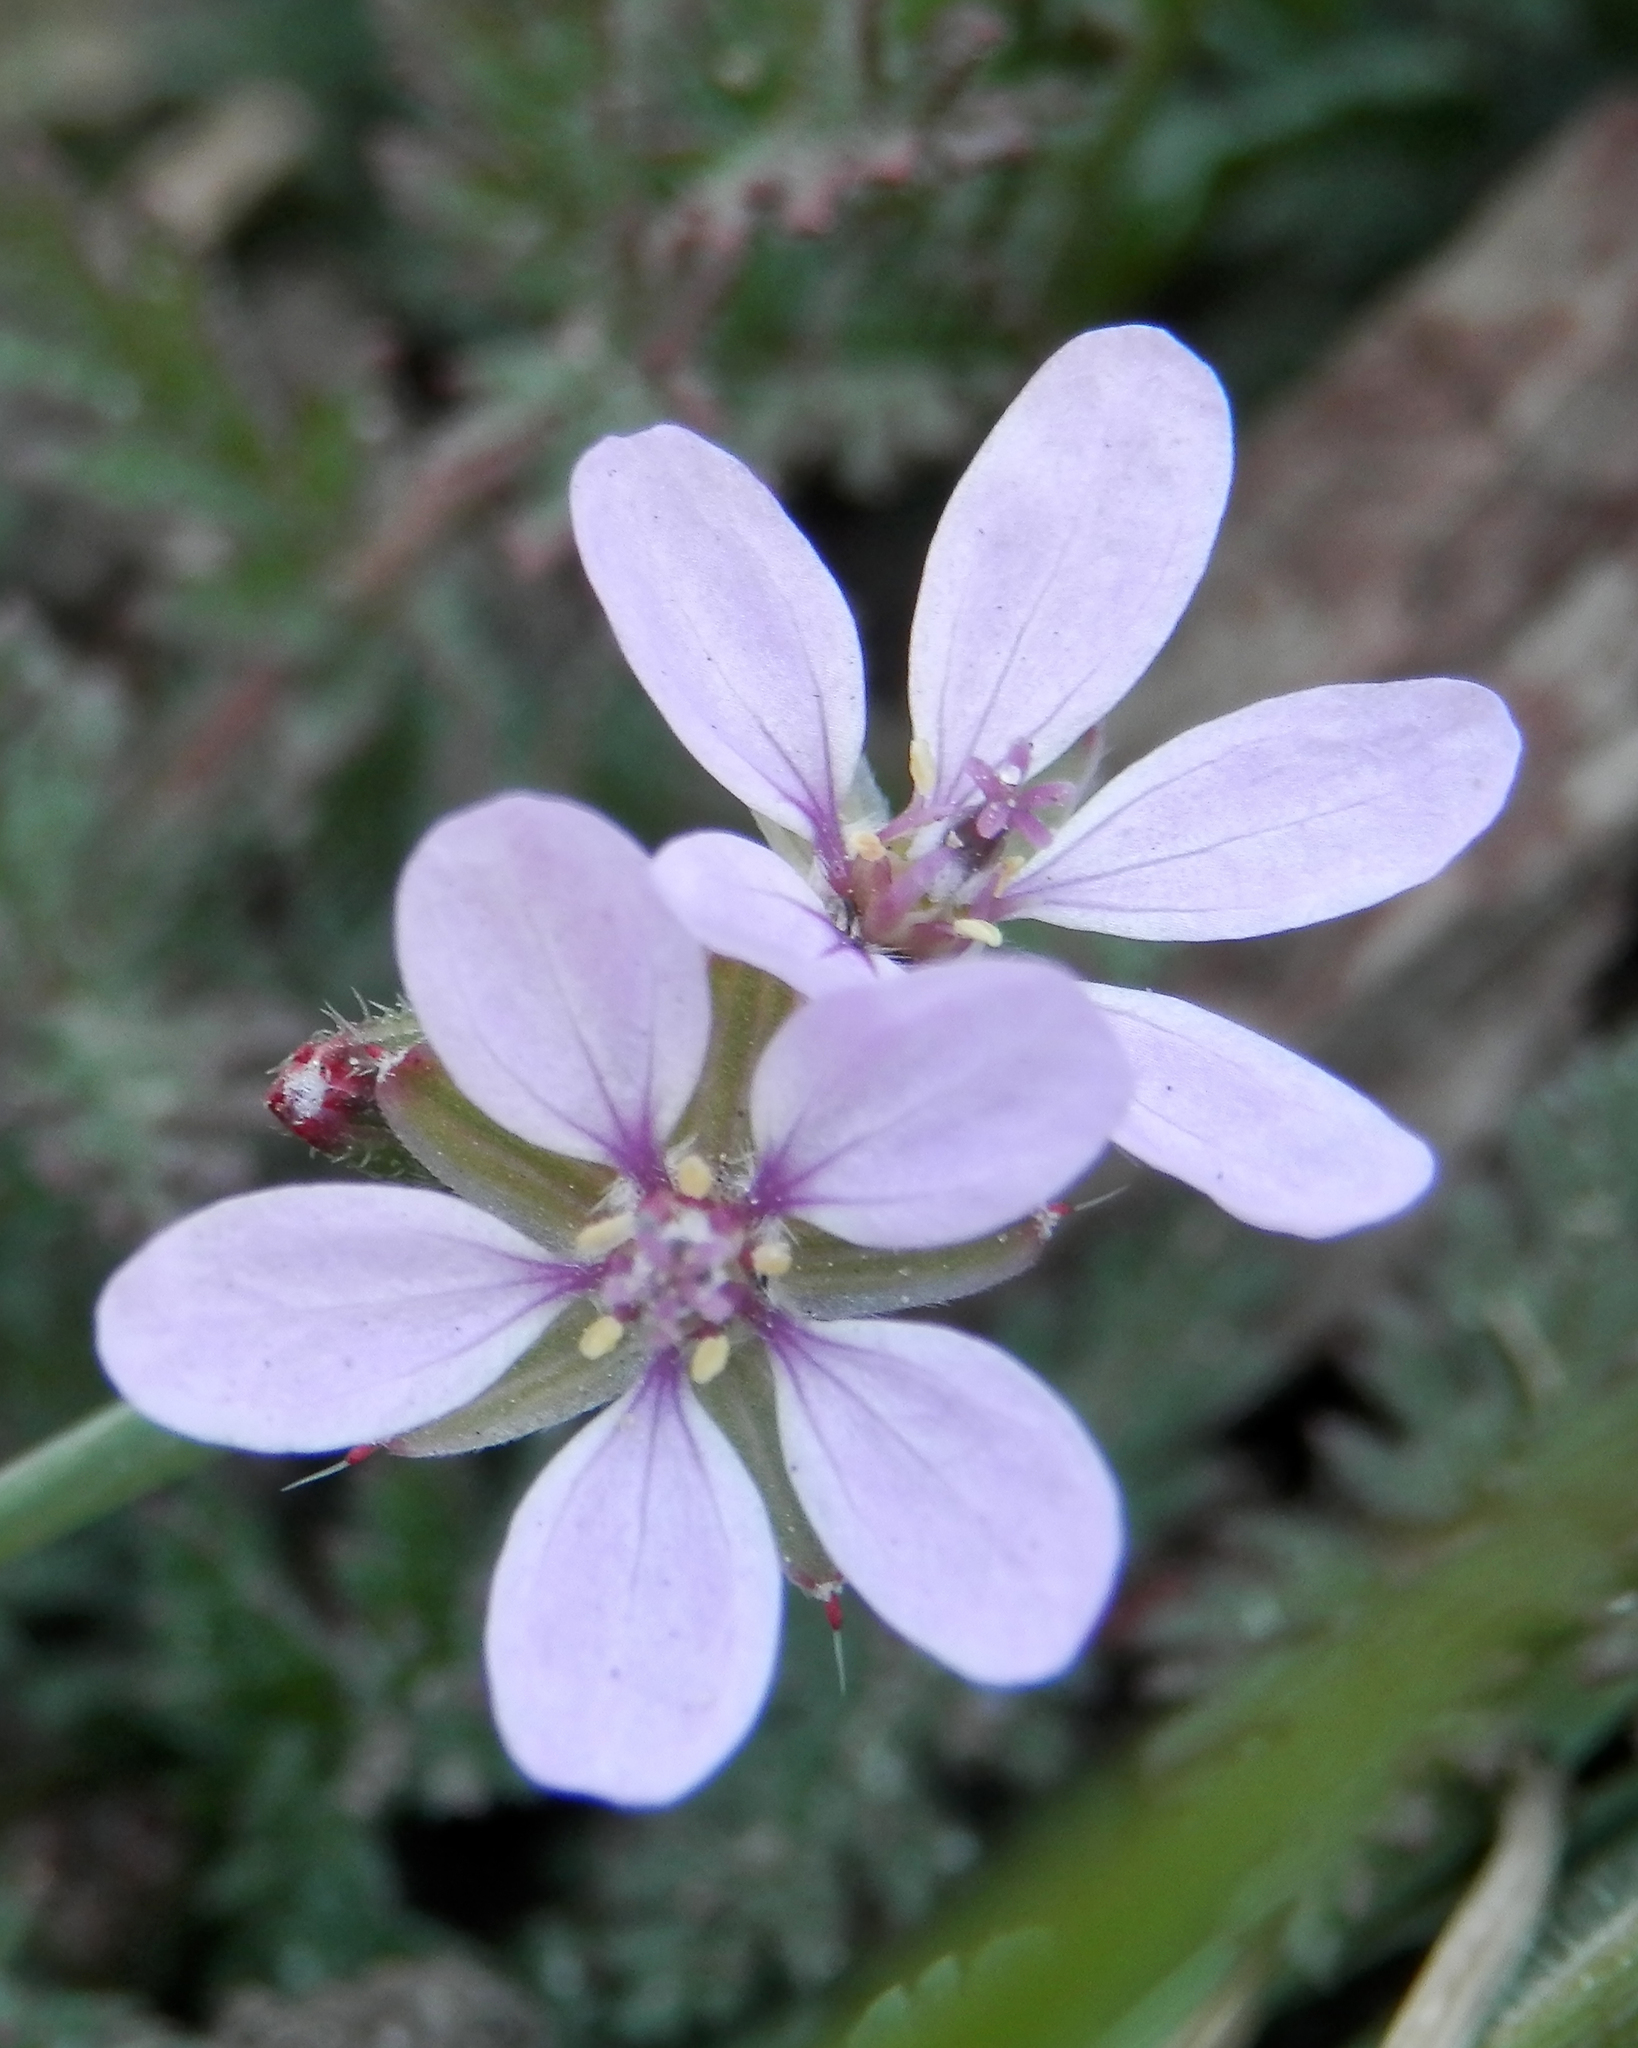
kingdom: Plantae
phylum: Tracheophyta
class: Magnoliopsida
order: Geraniales
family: Geraniaceae
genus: Erodium
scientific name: Erodium cicutarium
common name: Common stork's-bill
